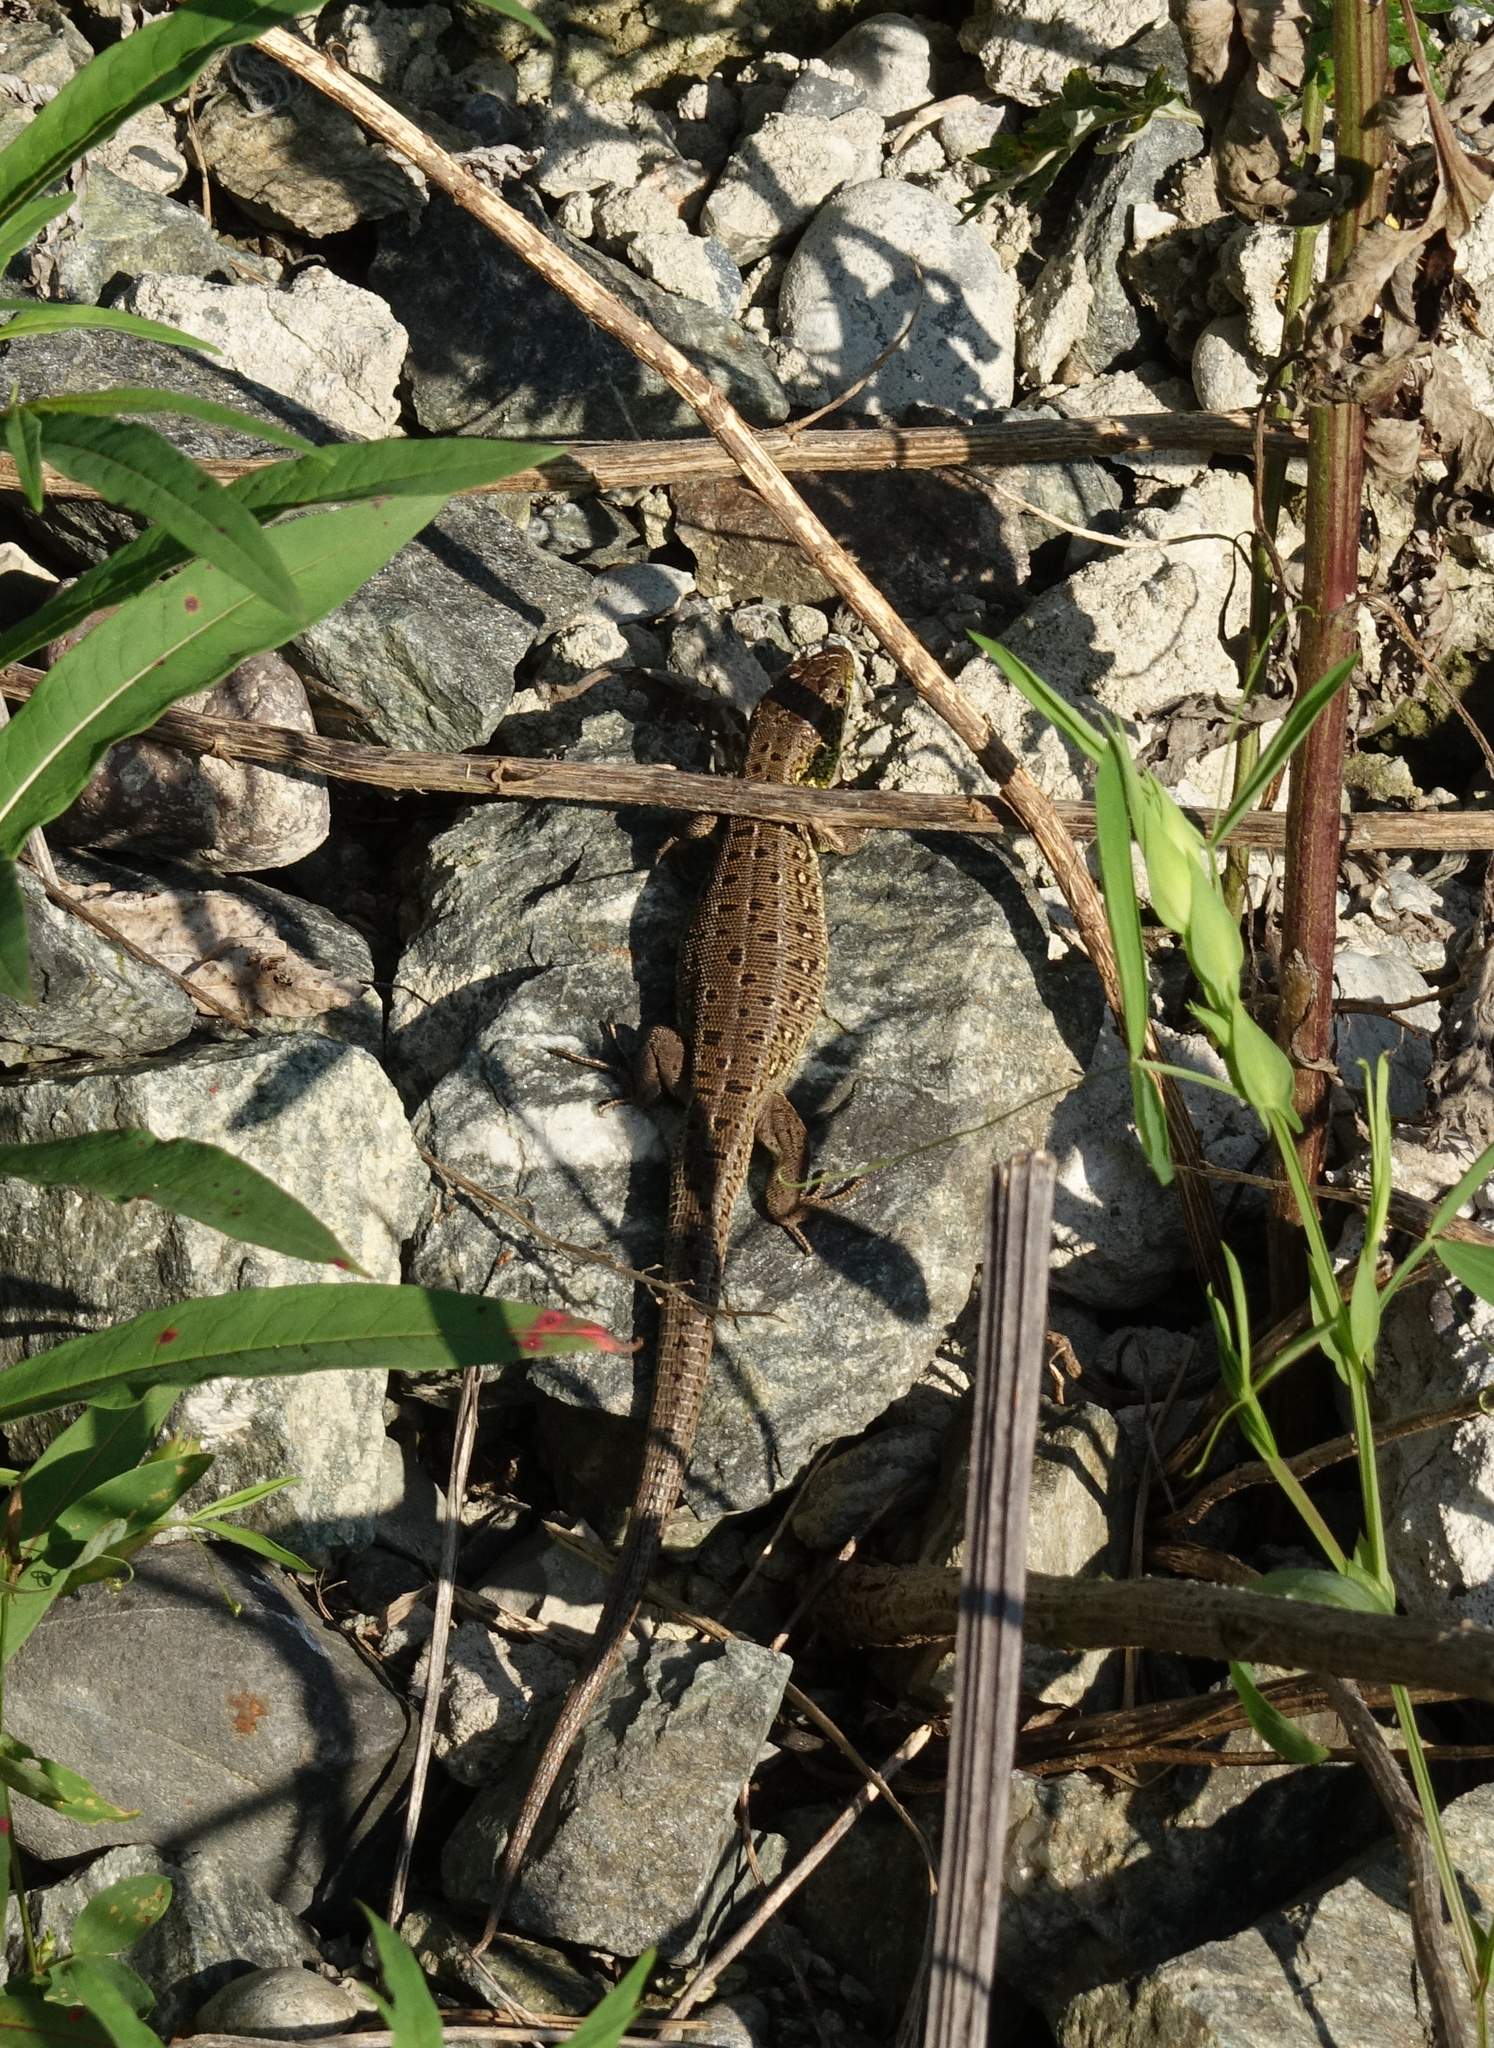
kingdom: Animalia
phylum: Chordata
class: Squamata
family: Lacertidae
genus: Lacerta
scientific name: Lacerta agilis
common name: Sand lizard
